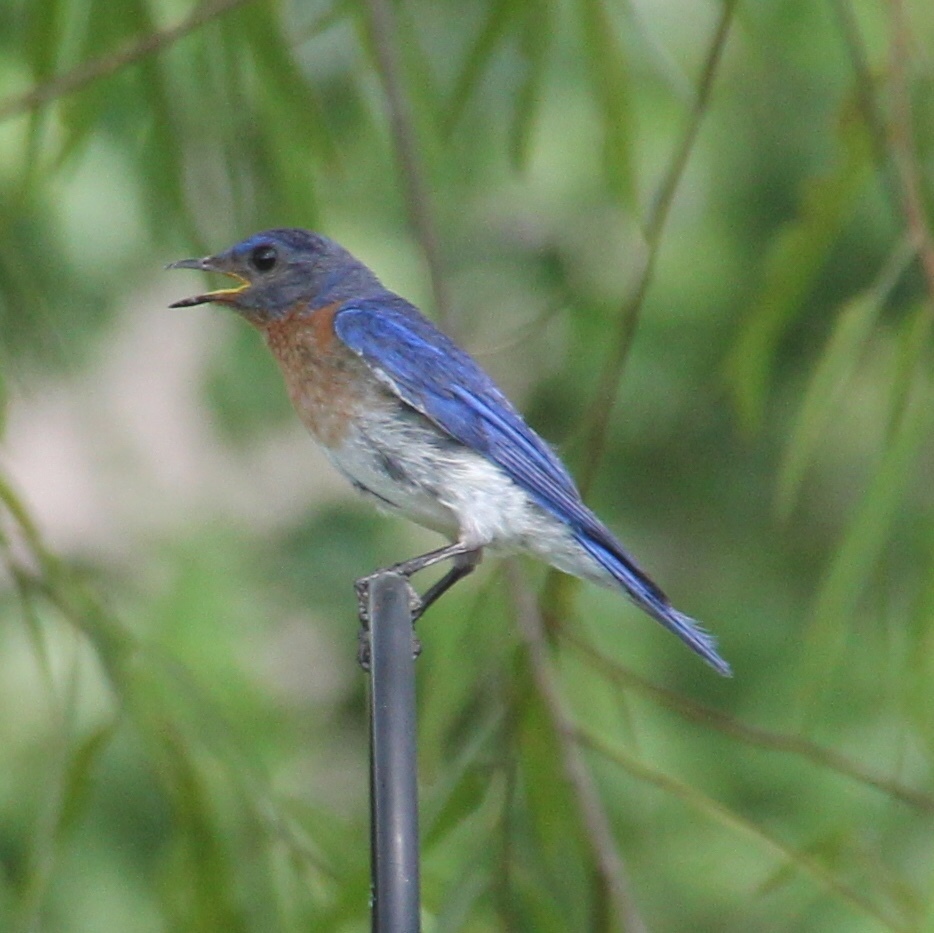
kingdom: Animalia
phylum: Chordata
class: Aves
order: Passeriformes
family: Turdidae
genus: Sialia
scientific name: Sialia sialis
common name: Eastern bluebird
